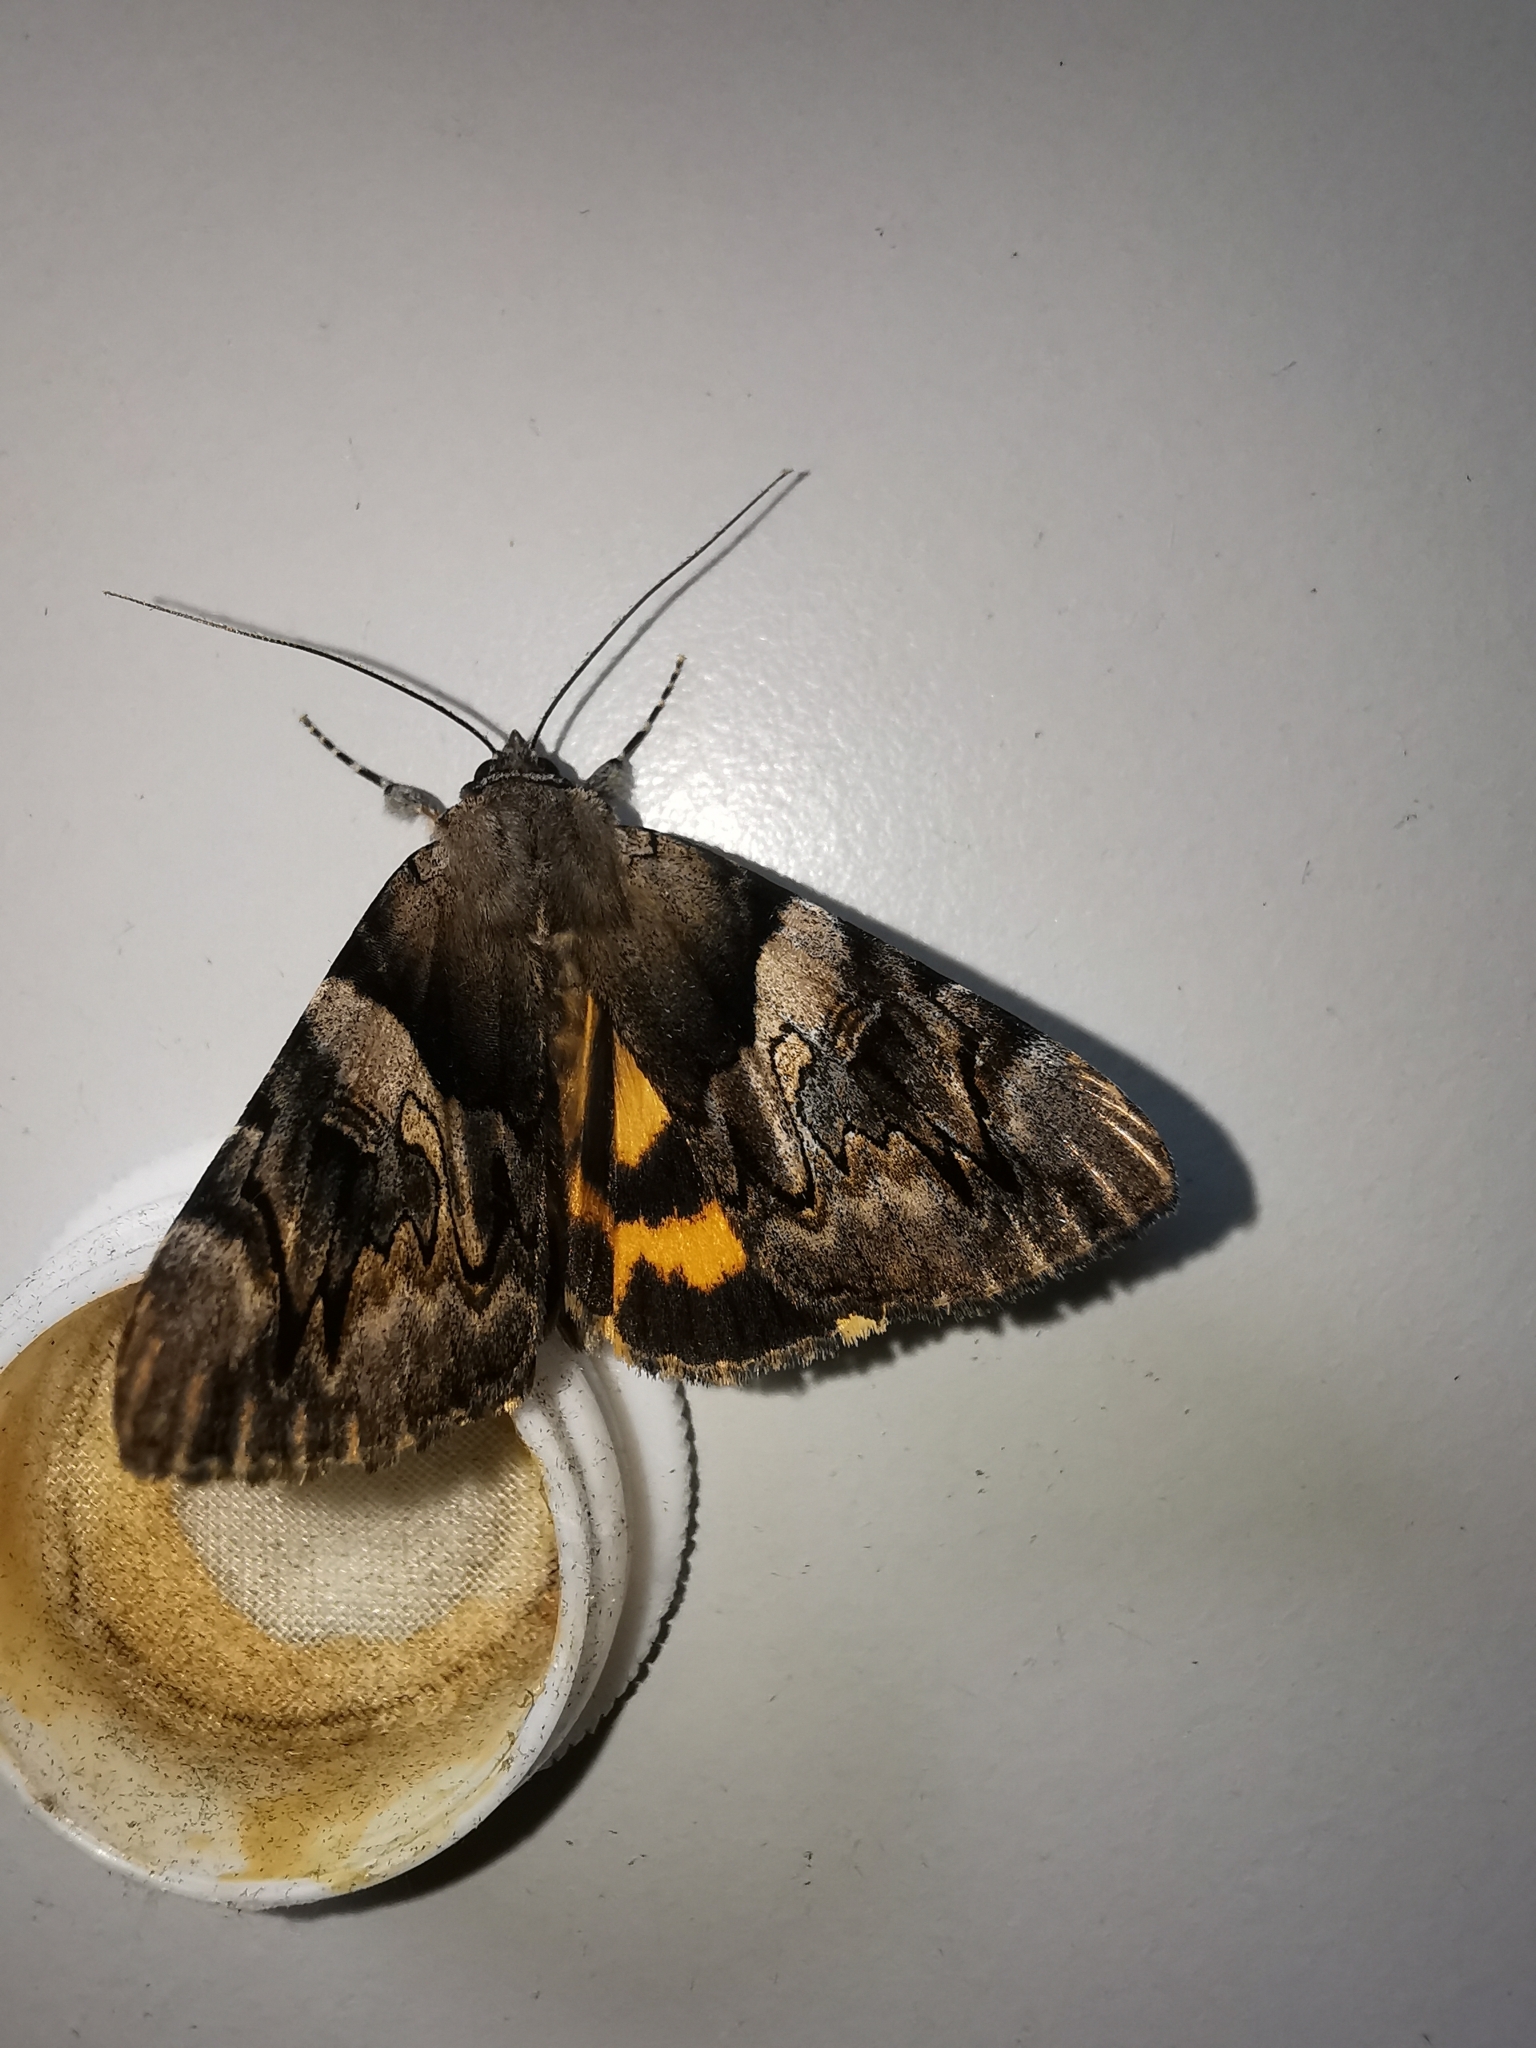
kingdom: Animalia
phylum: Arthropoda
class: Insecta
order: Lepidoptera
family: Erebidae
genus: Catocala
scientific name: Catocala fulminea
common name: Yellow bands underwing
